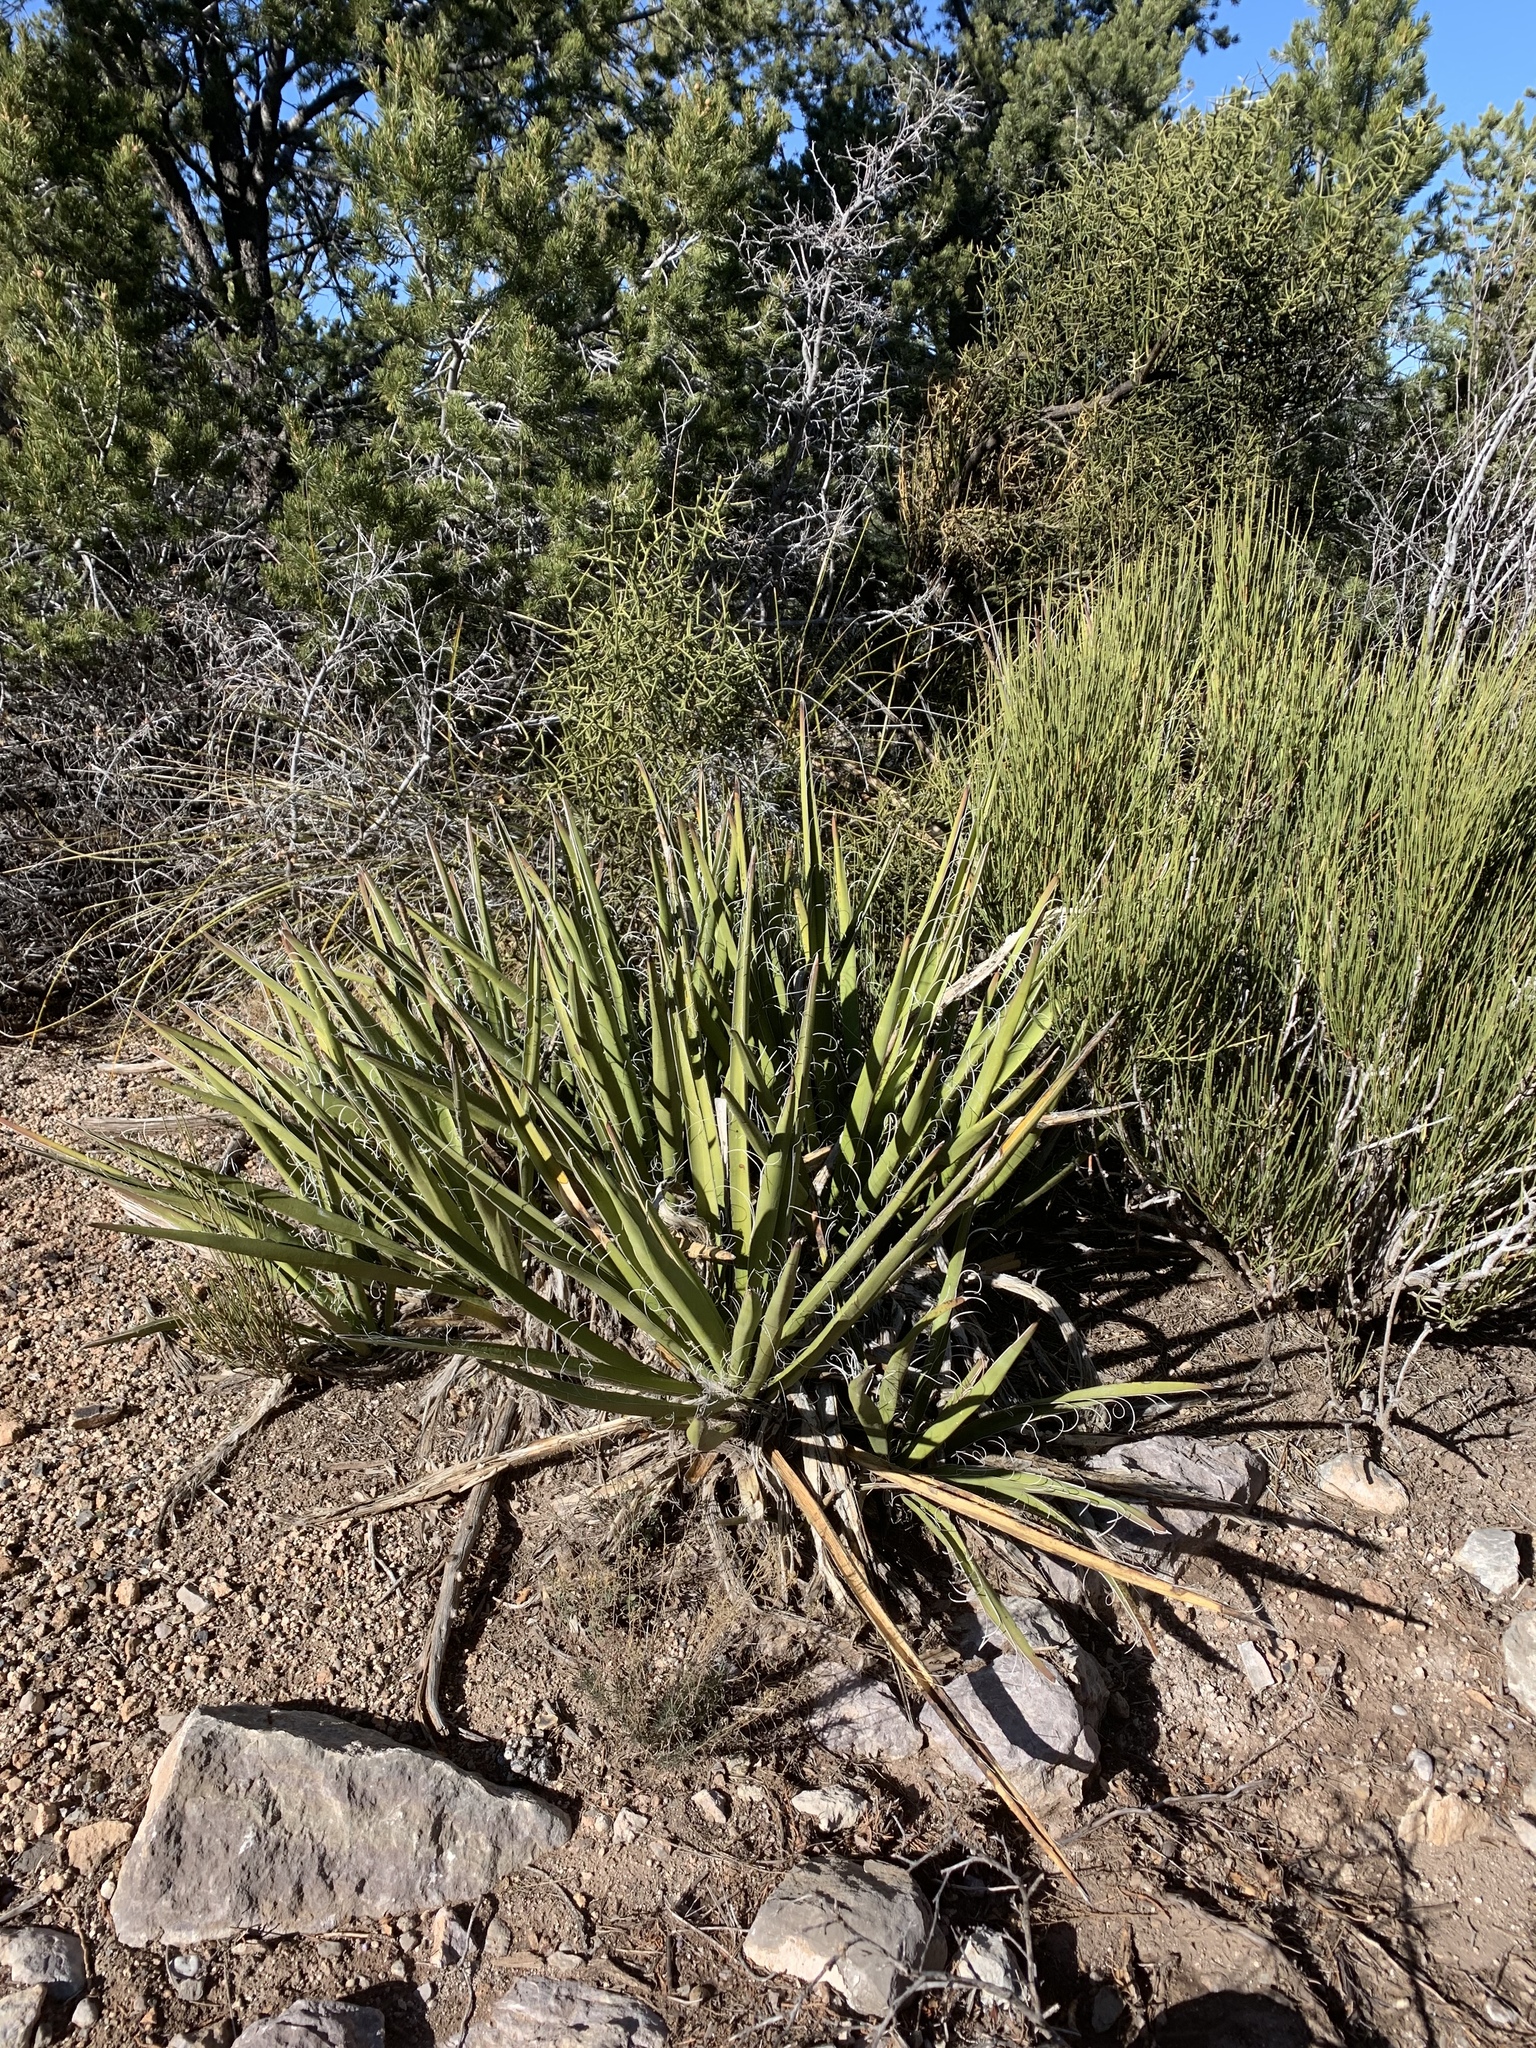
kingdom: Plantae
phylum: Tracheophyta
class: Liliopsida
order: Asparagales
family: Asparagaceae
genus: Yucca
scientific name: Yucca baccata
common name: Banana yucca
